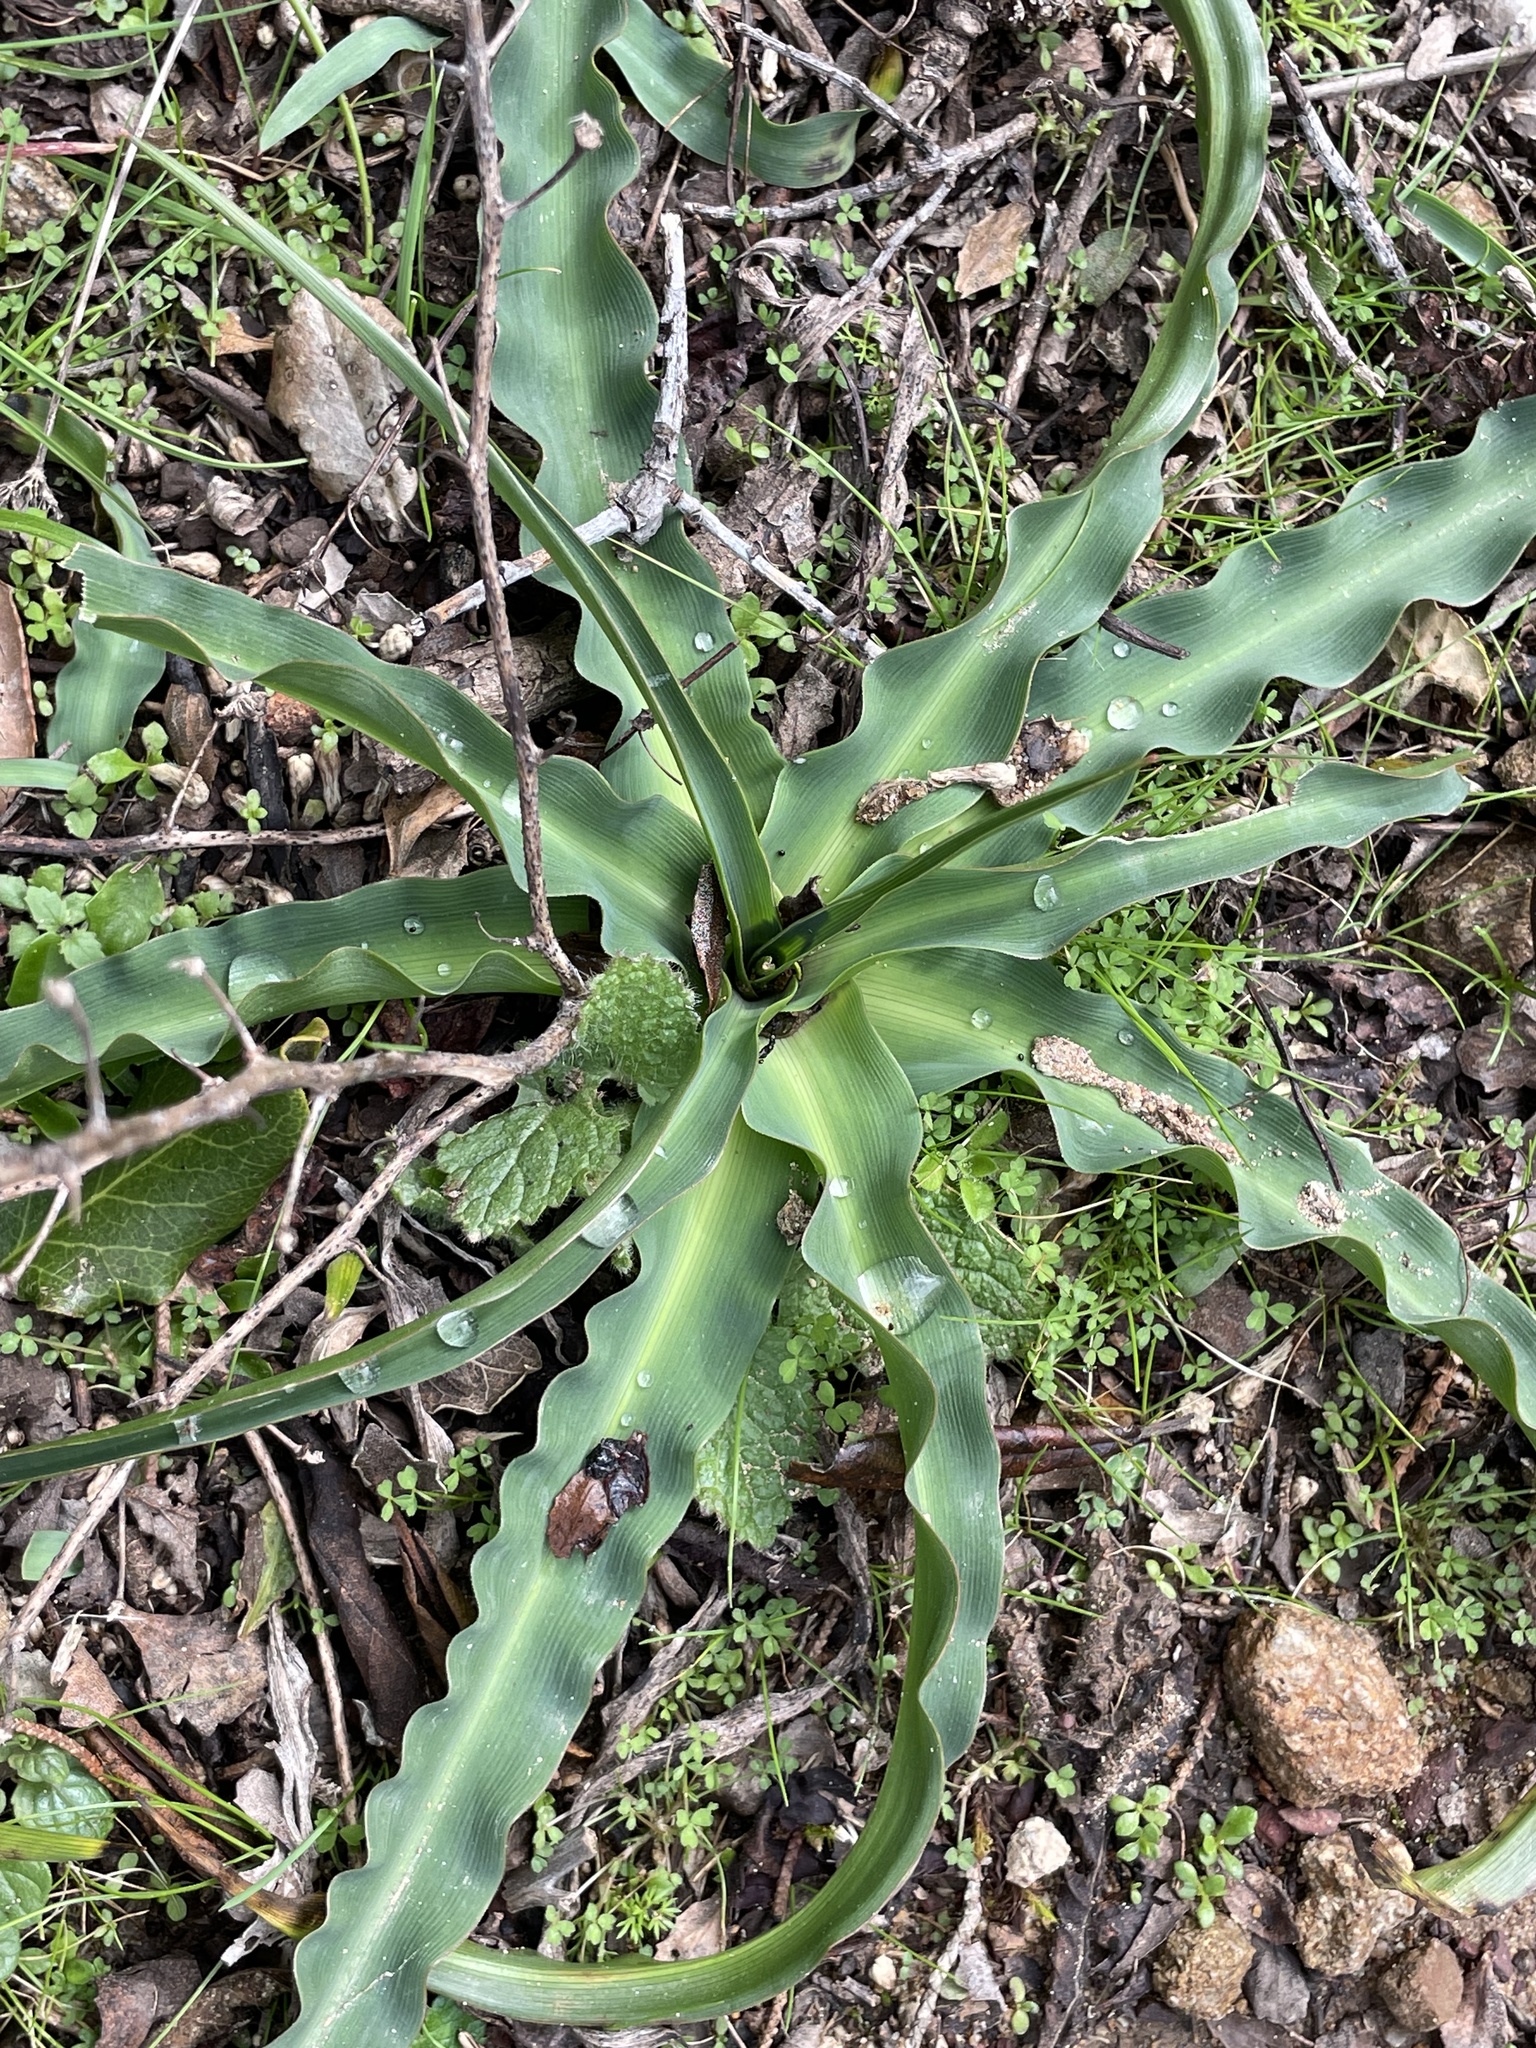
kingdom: Plantae
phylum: Tracheophyta
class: Liliopsida
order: Asparagales
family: Asparagaceae
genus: Chlorogalum
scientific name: Chlorogalum pomeridianum
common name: Amole
